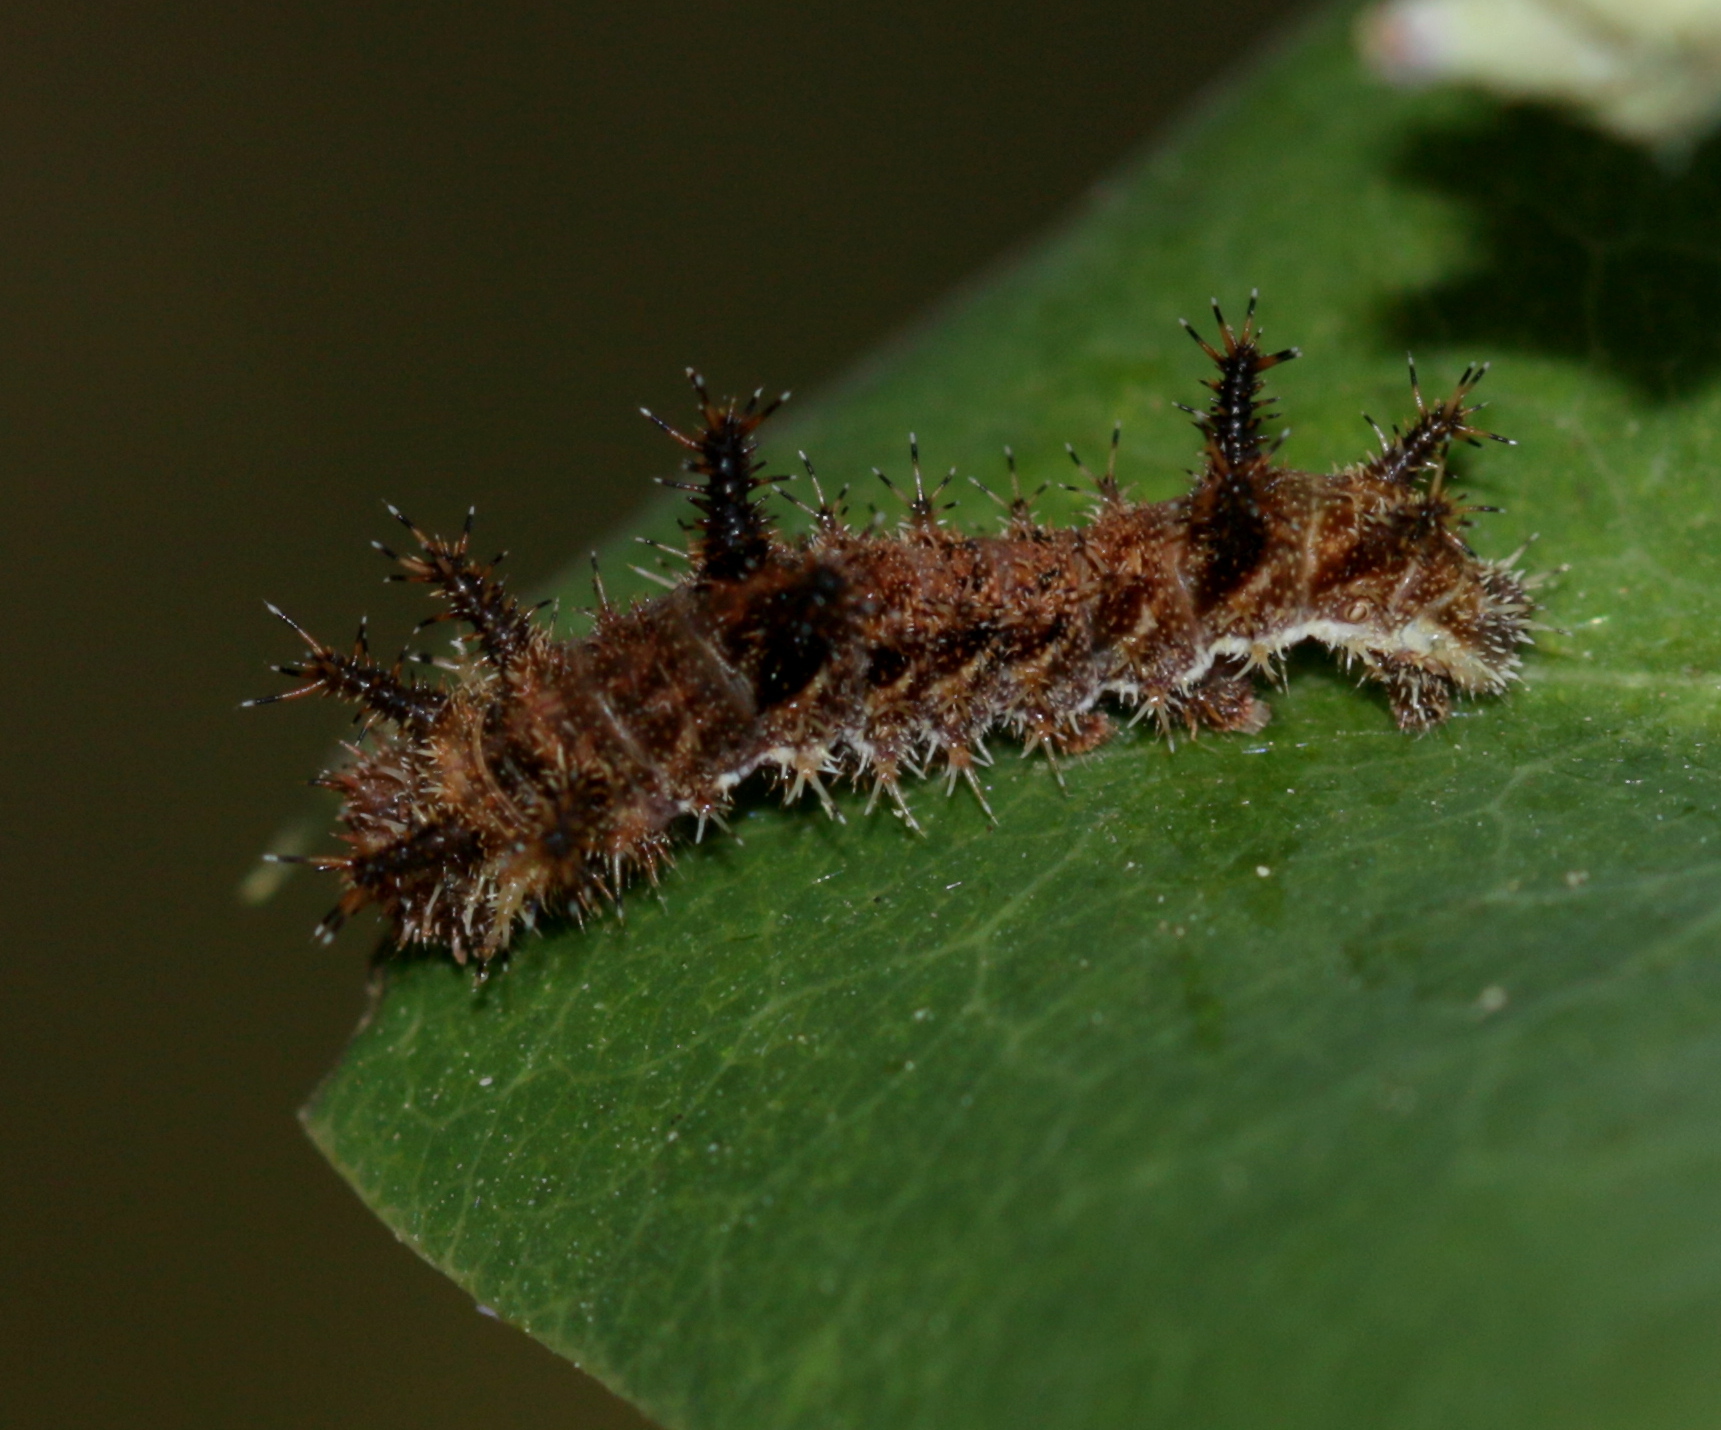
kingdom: Animalia
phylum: Arthropoda
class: Insecta
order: Lepidoptera
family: Nymphalidae
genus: Limenitis
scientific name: Limenitis reducta
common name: Southern white admiral
